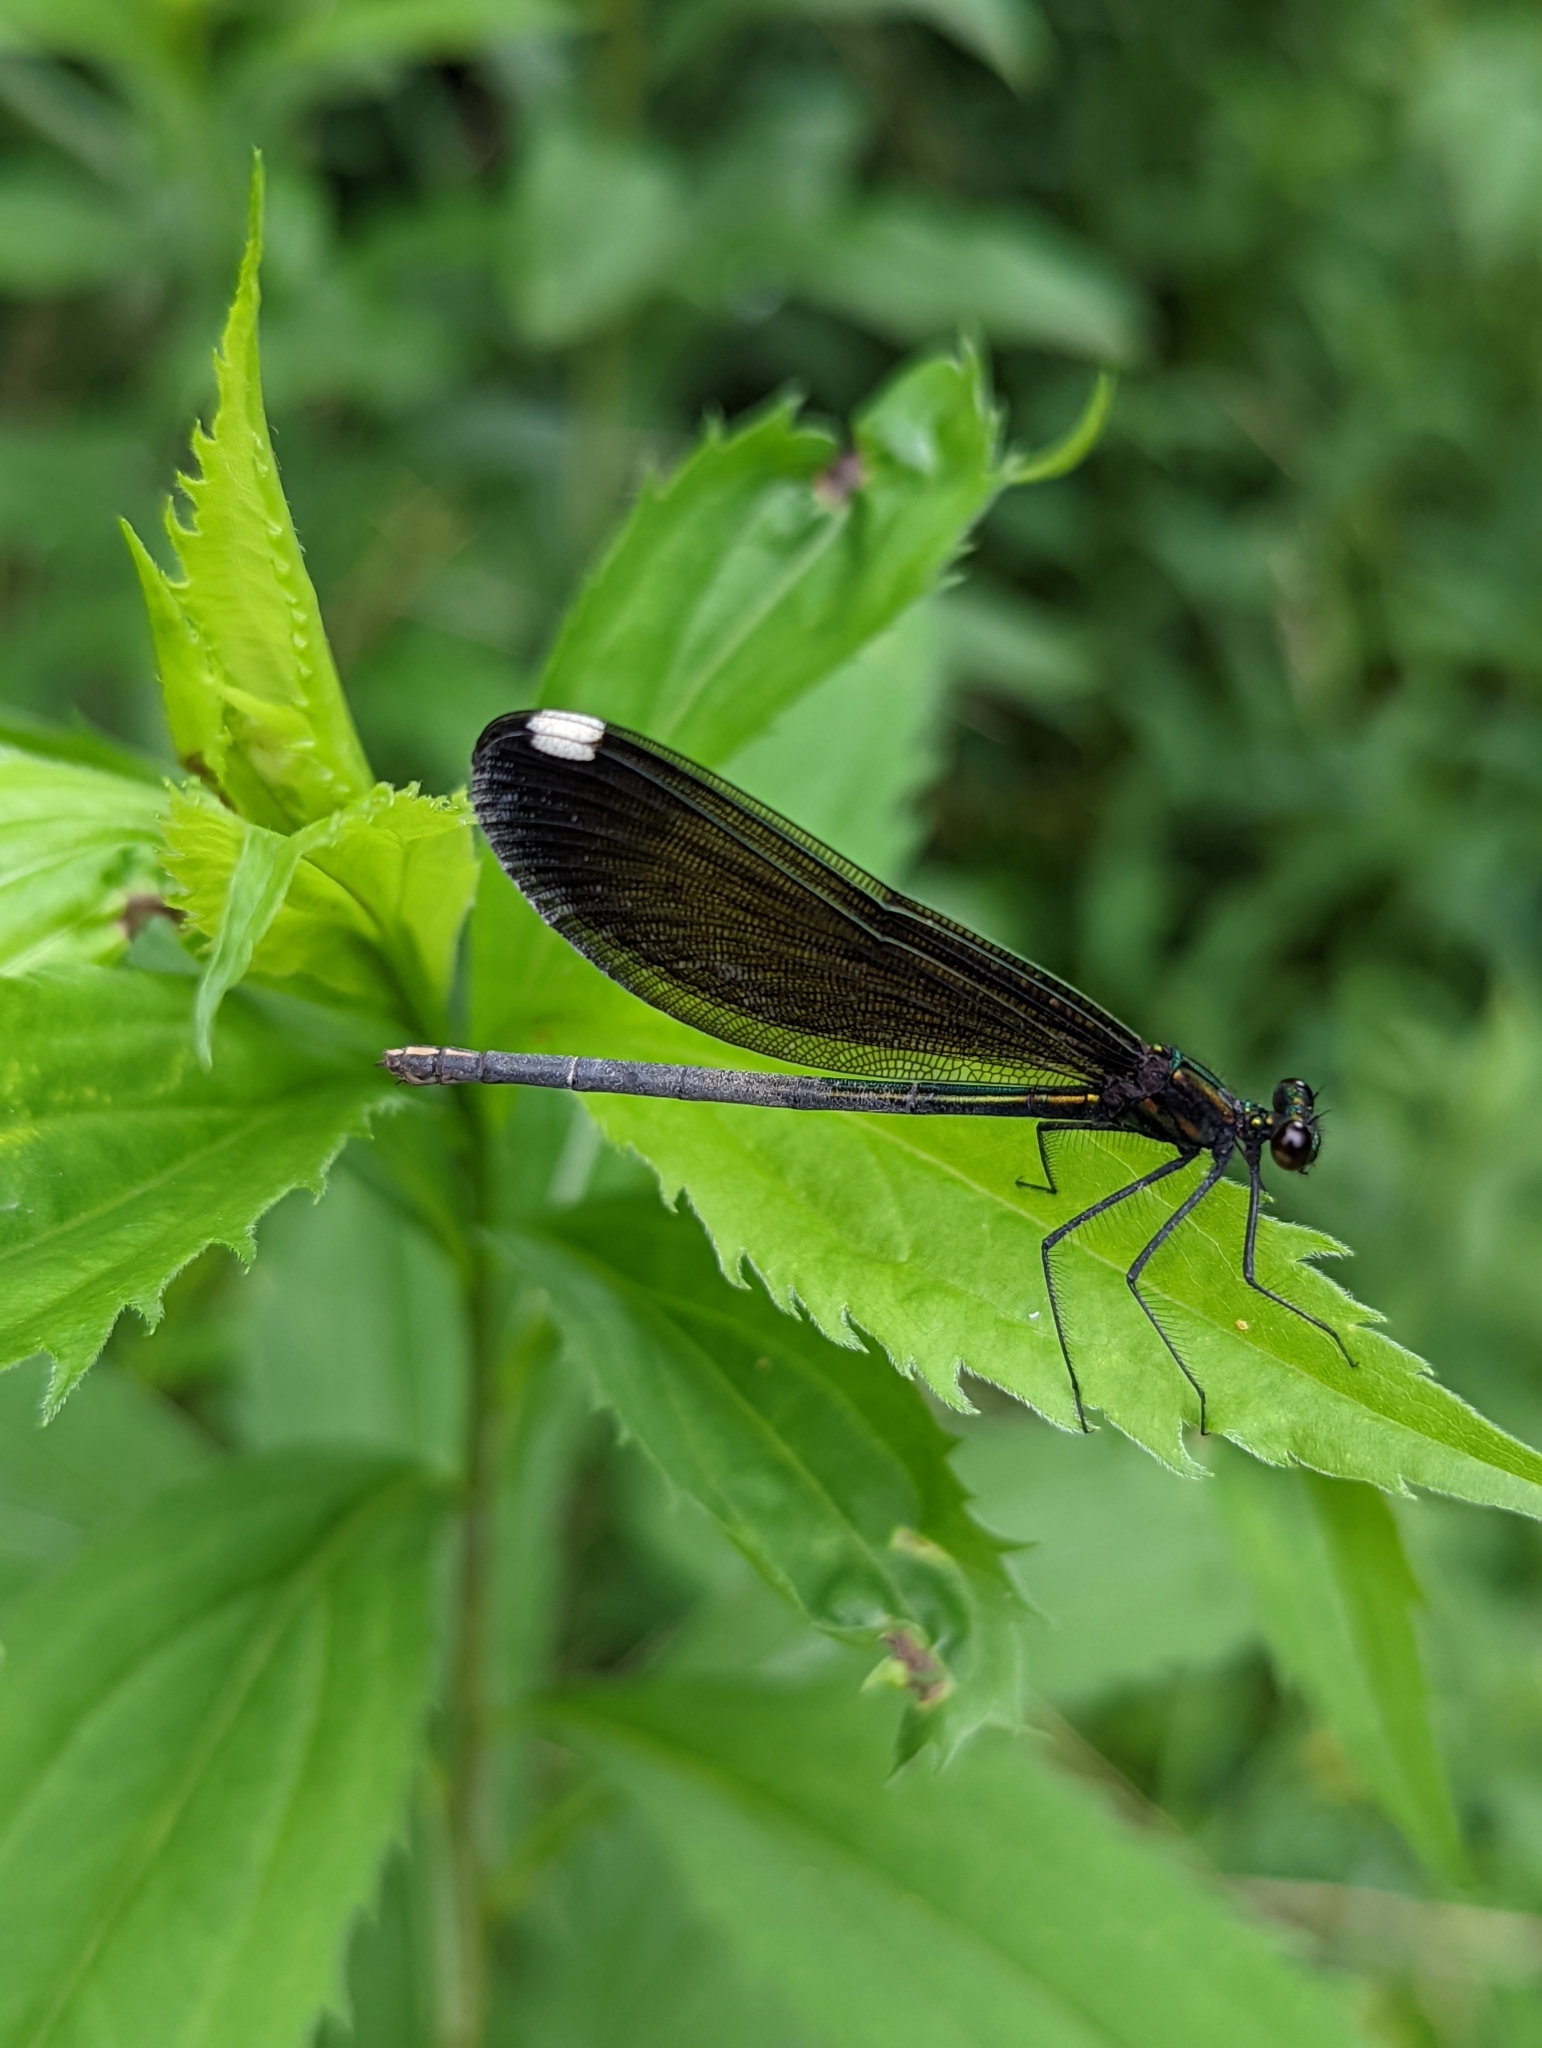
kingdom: Animalia
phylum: Arthropoda
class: Insecta
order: Odonata
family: Calopterygidae
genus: Calopteryx
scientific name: Calopteryx maculata
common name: Ebony jewelwing
